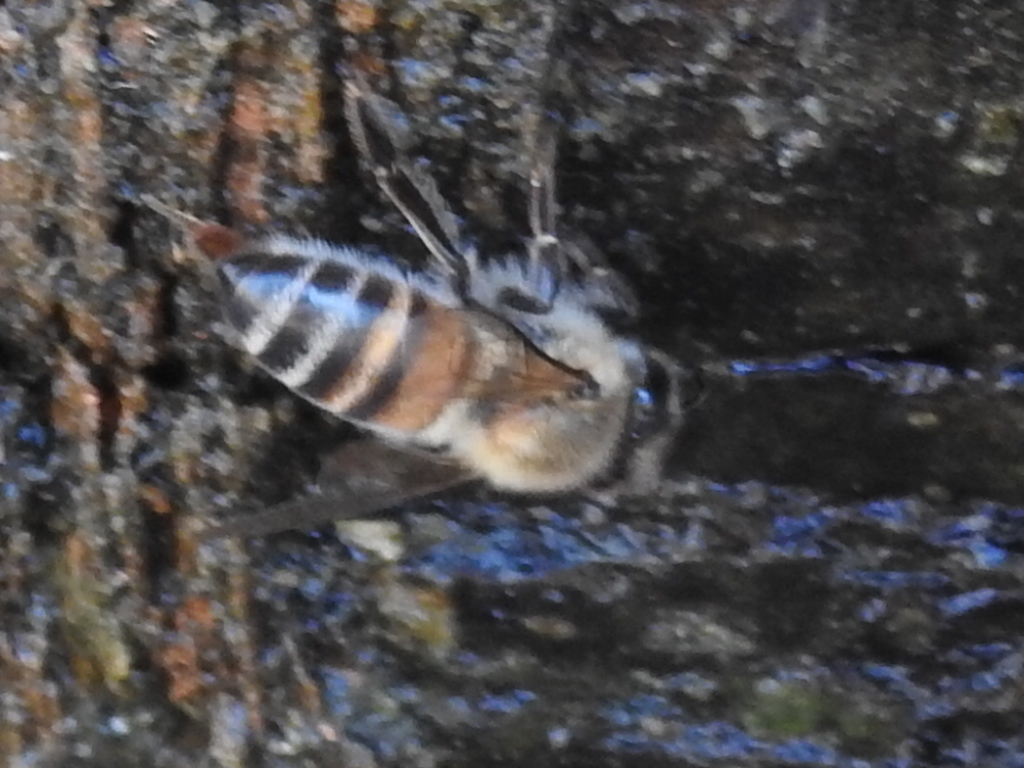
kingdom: Animalia
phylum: Arthropoda
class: Insecta
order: Hymenoptera
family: Apidae
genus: Apis
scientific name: Apis mellifera
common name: Honey bee
